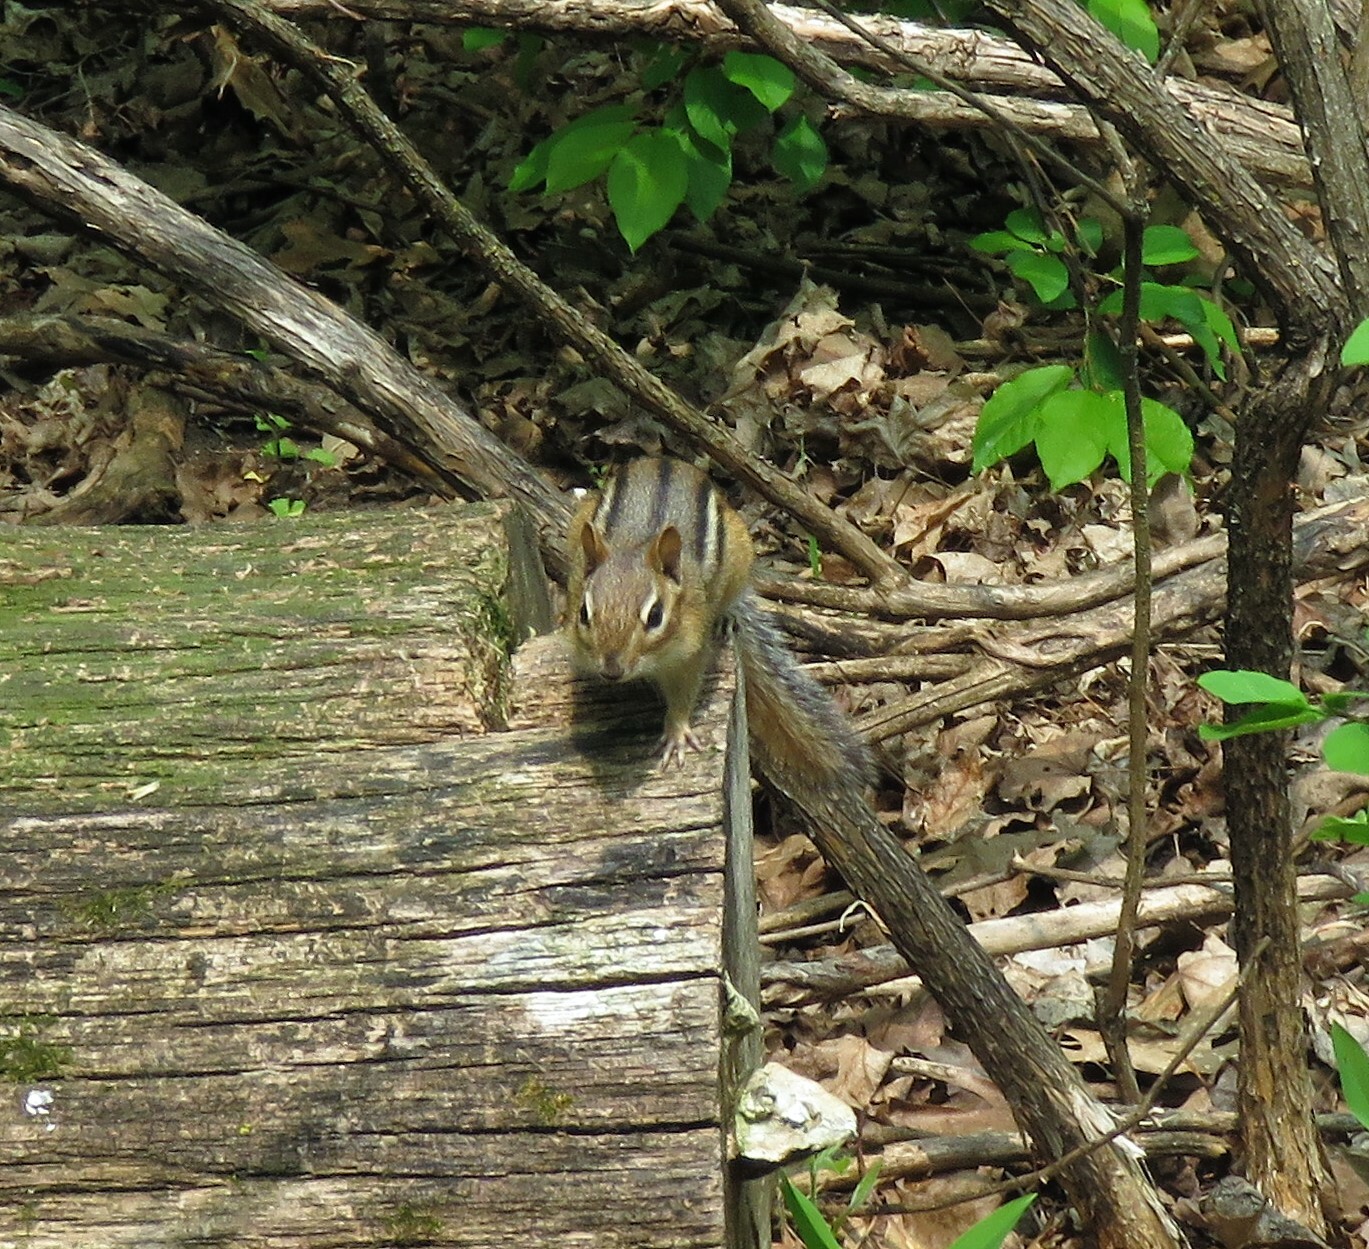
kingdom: Animalia
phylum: Chordata
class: Mammalia
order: Rodentia
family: Sciuridae
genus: Tamias
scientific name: Tamias striatus
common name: Eastern chipmunk
